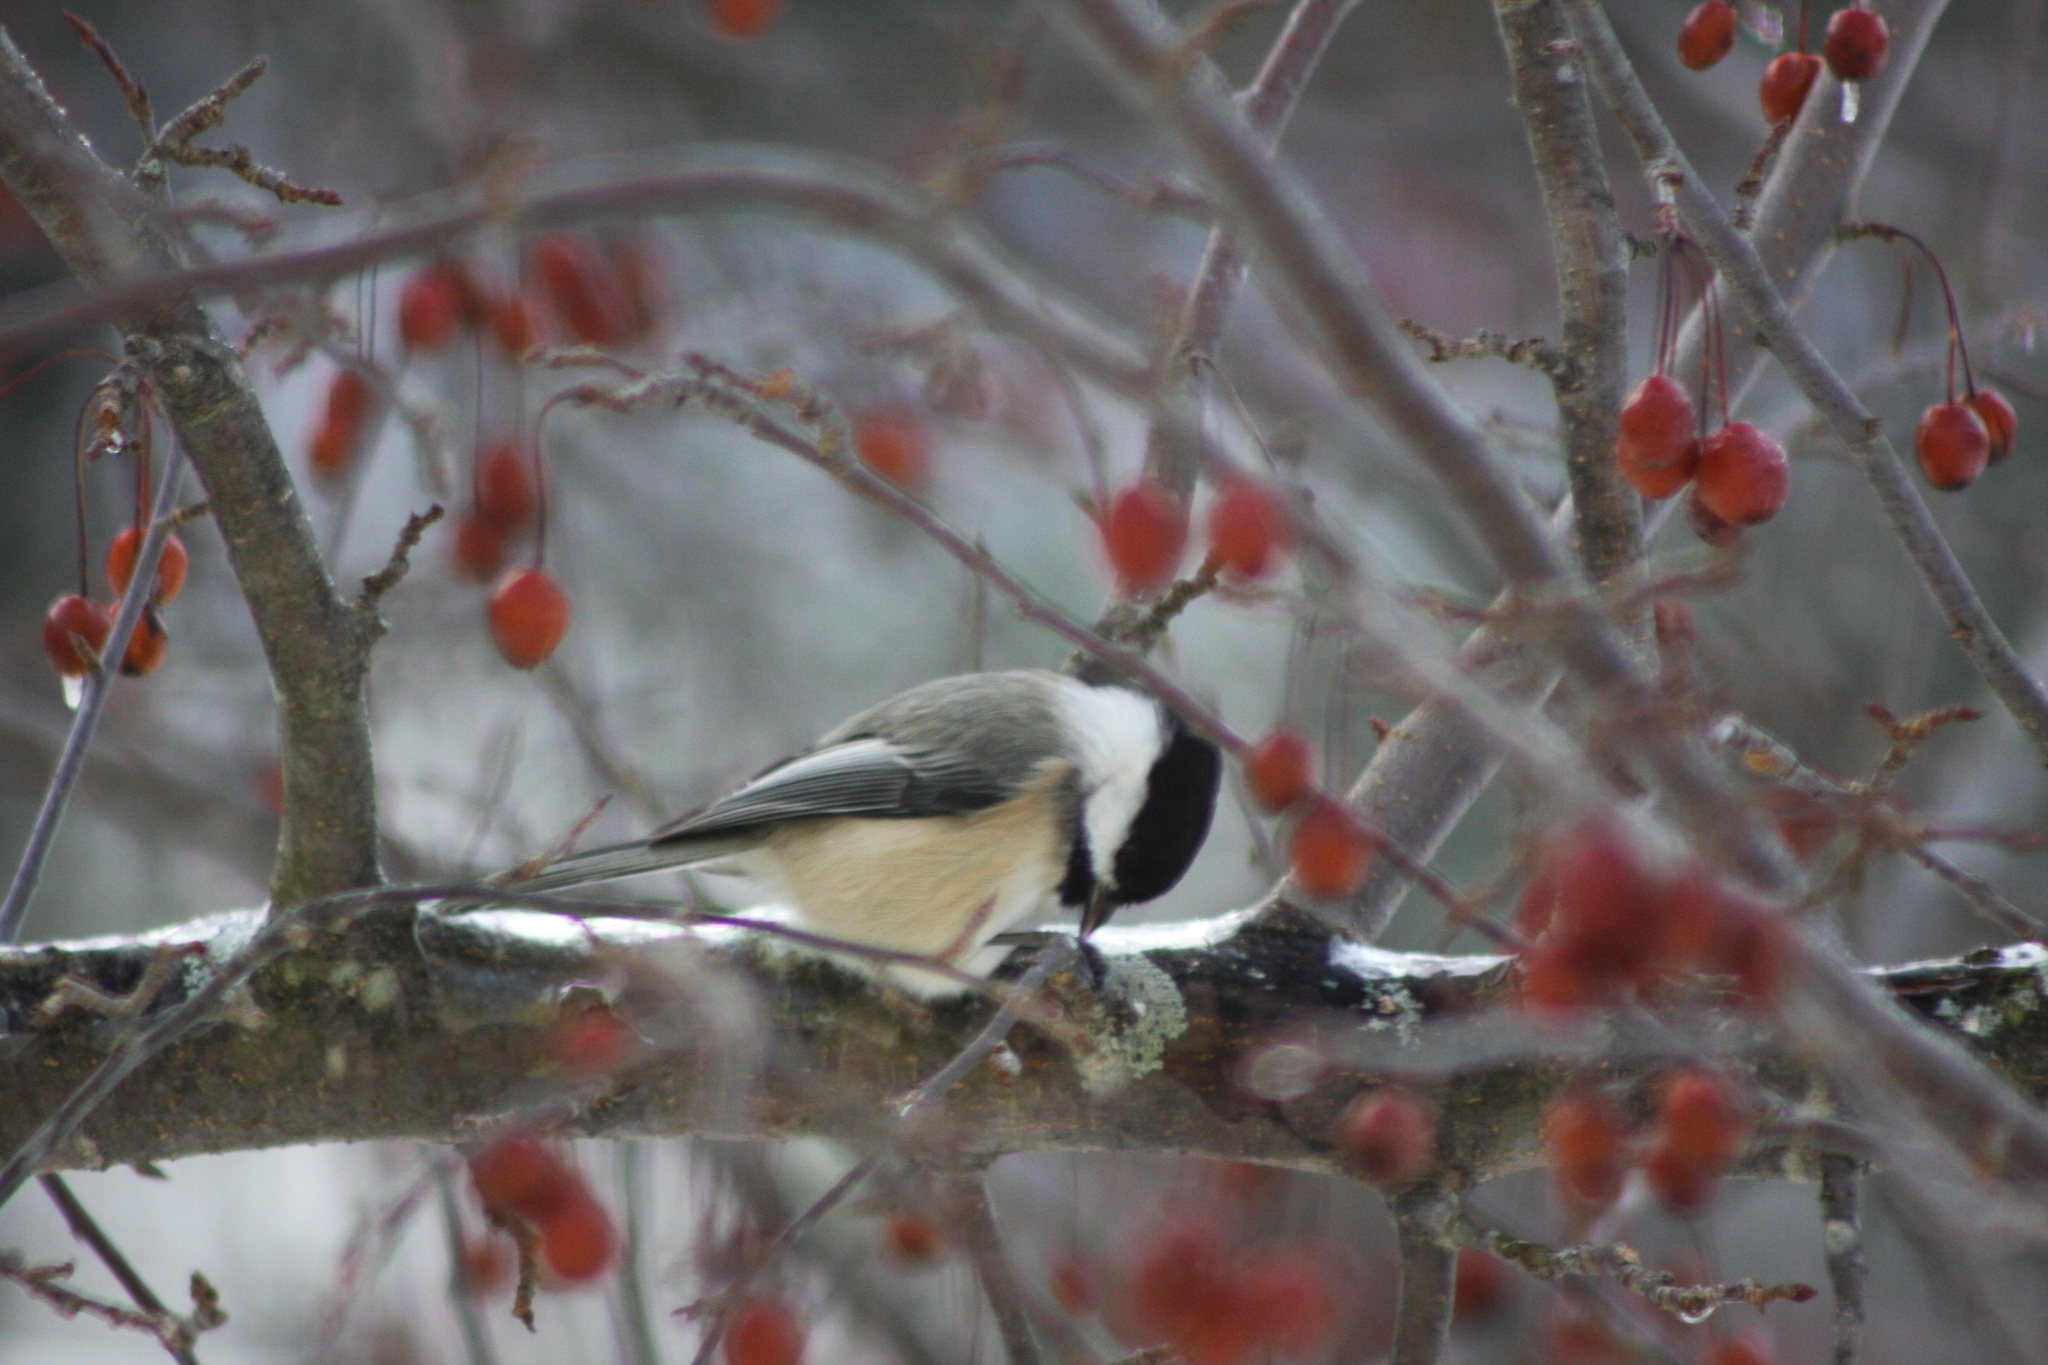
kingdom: Animalia
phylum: Chordata
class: Aves
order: Passeriformes
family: Paridae
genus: Poecile
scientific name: Poecile atricapillus
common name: Black-capped chickadee
